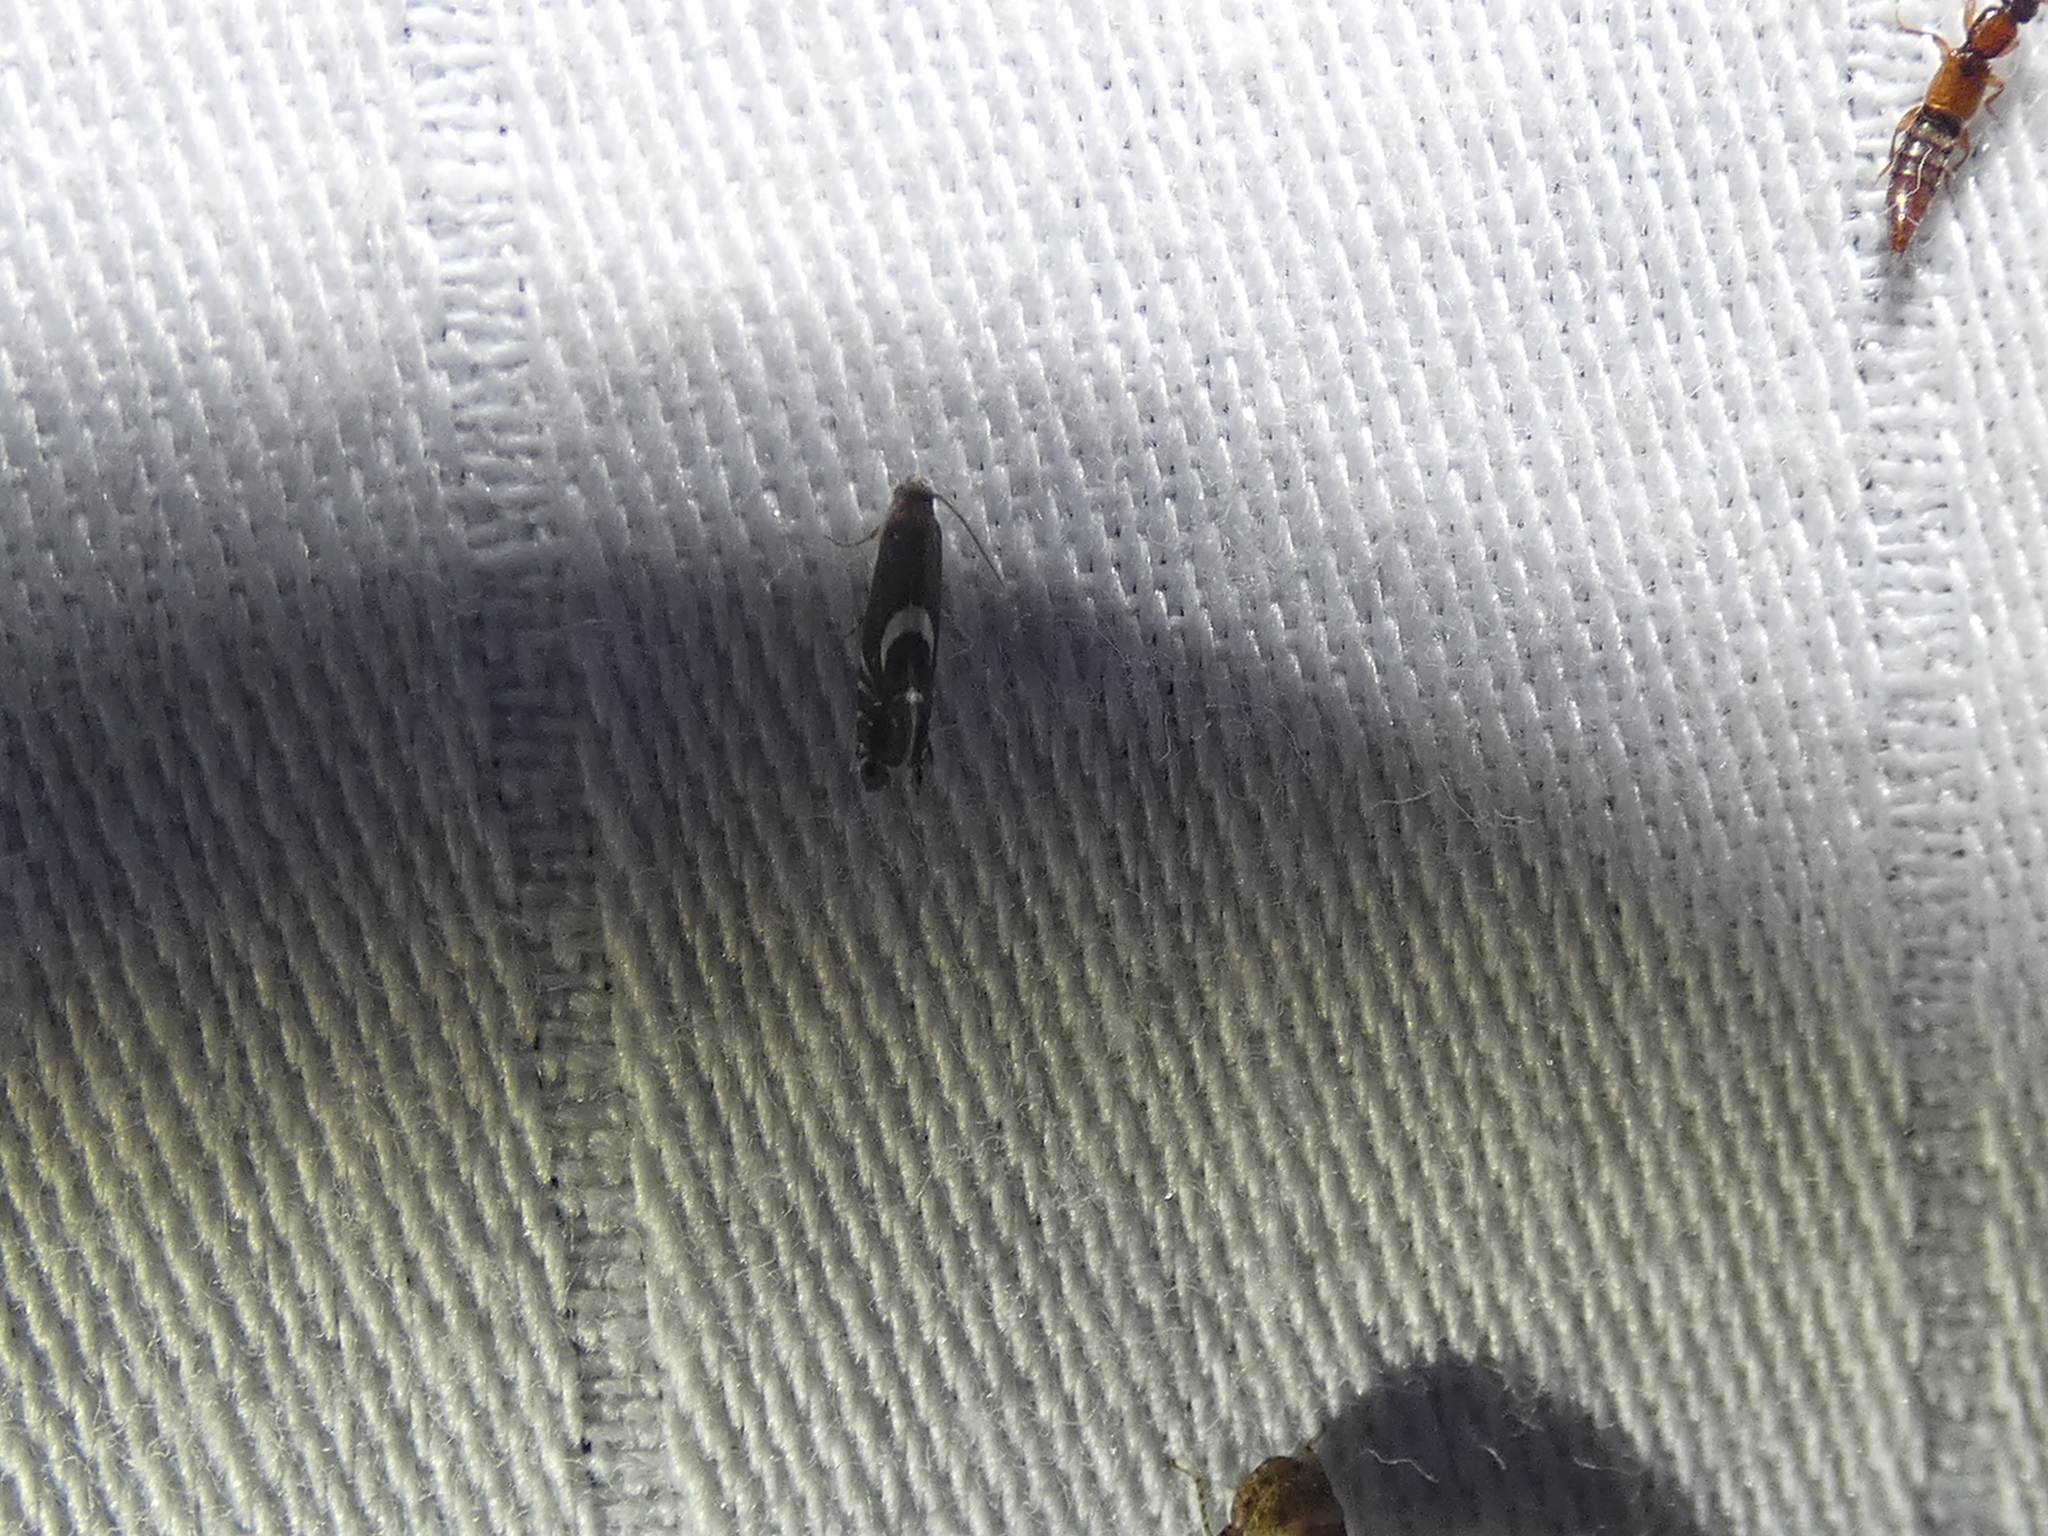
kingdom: Animalia
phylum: Arthropoda
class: Insecta
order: Lepidoptera
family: Glyphipterigidae
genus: Glyphipterix
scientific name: Glyphipterix Diploschizia impigritella
